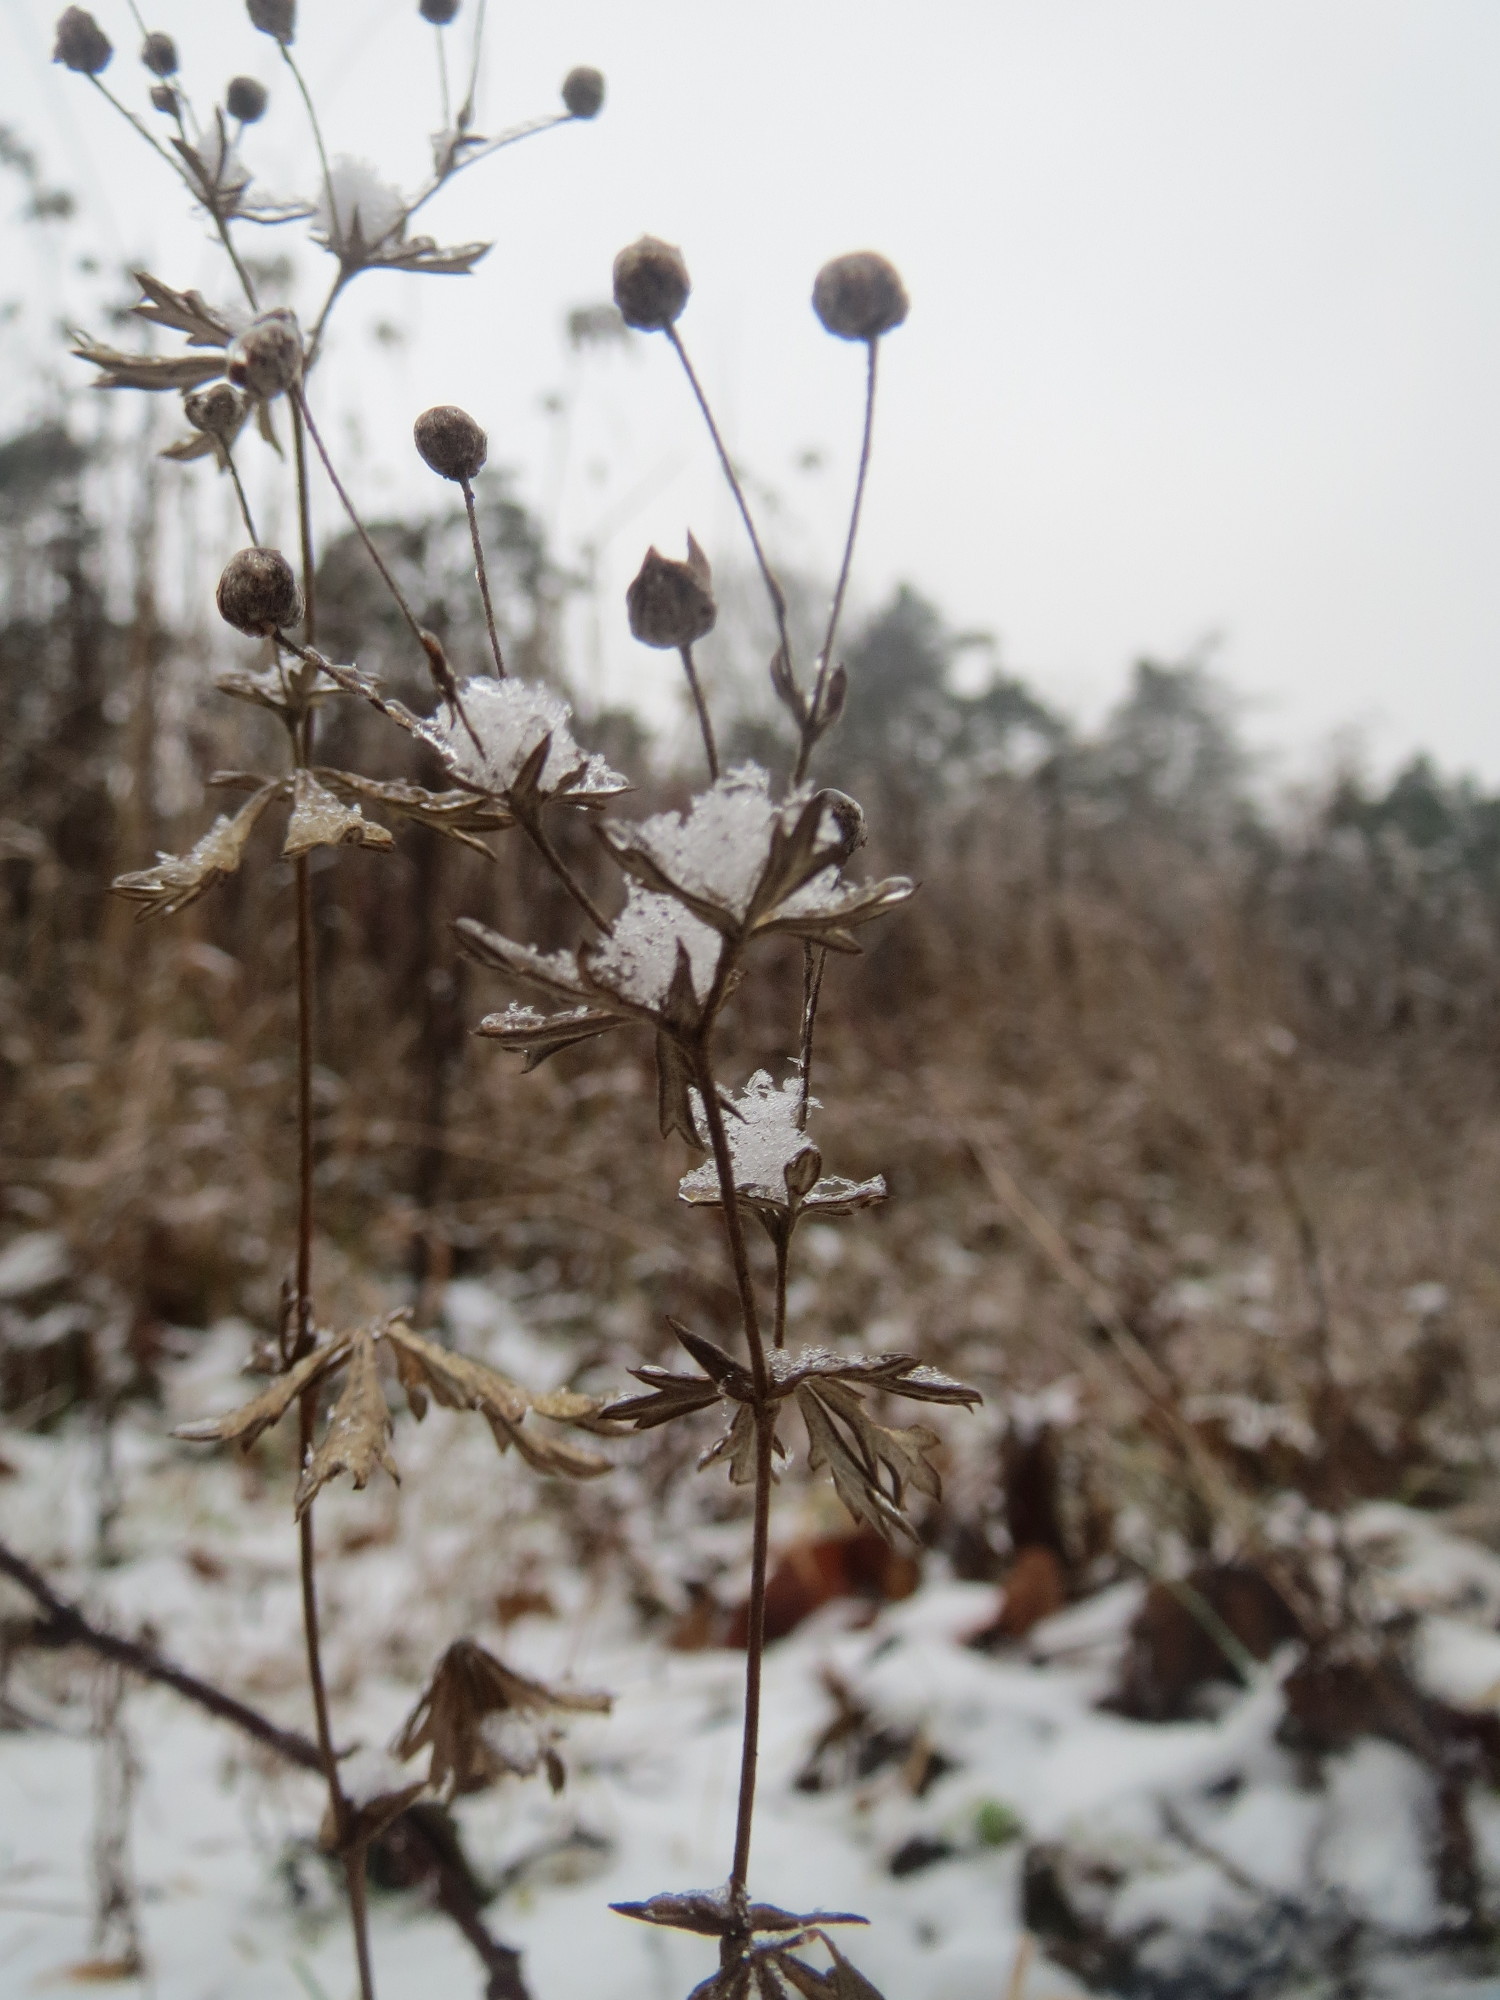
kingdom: Plantae
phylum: Tracheophyta
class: Magnoliopsida
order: Rosales
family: Rosaceae
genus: Potentilla
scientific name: Potentilla argentea
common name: Hoary cinquefoil
